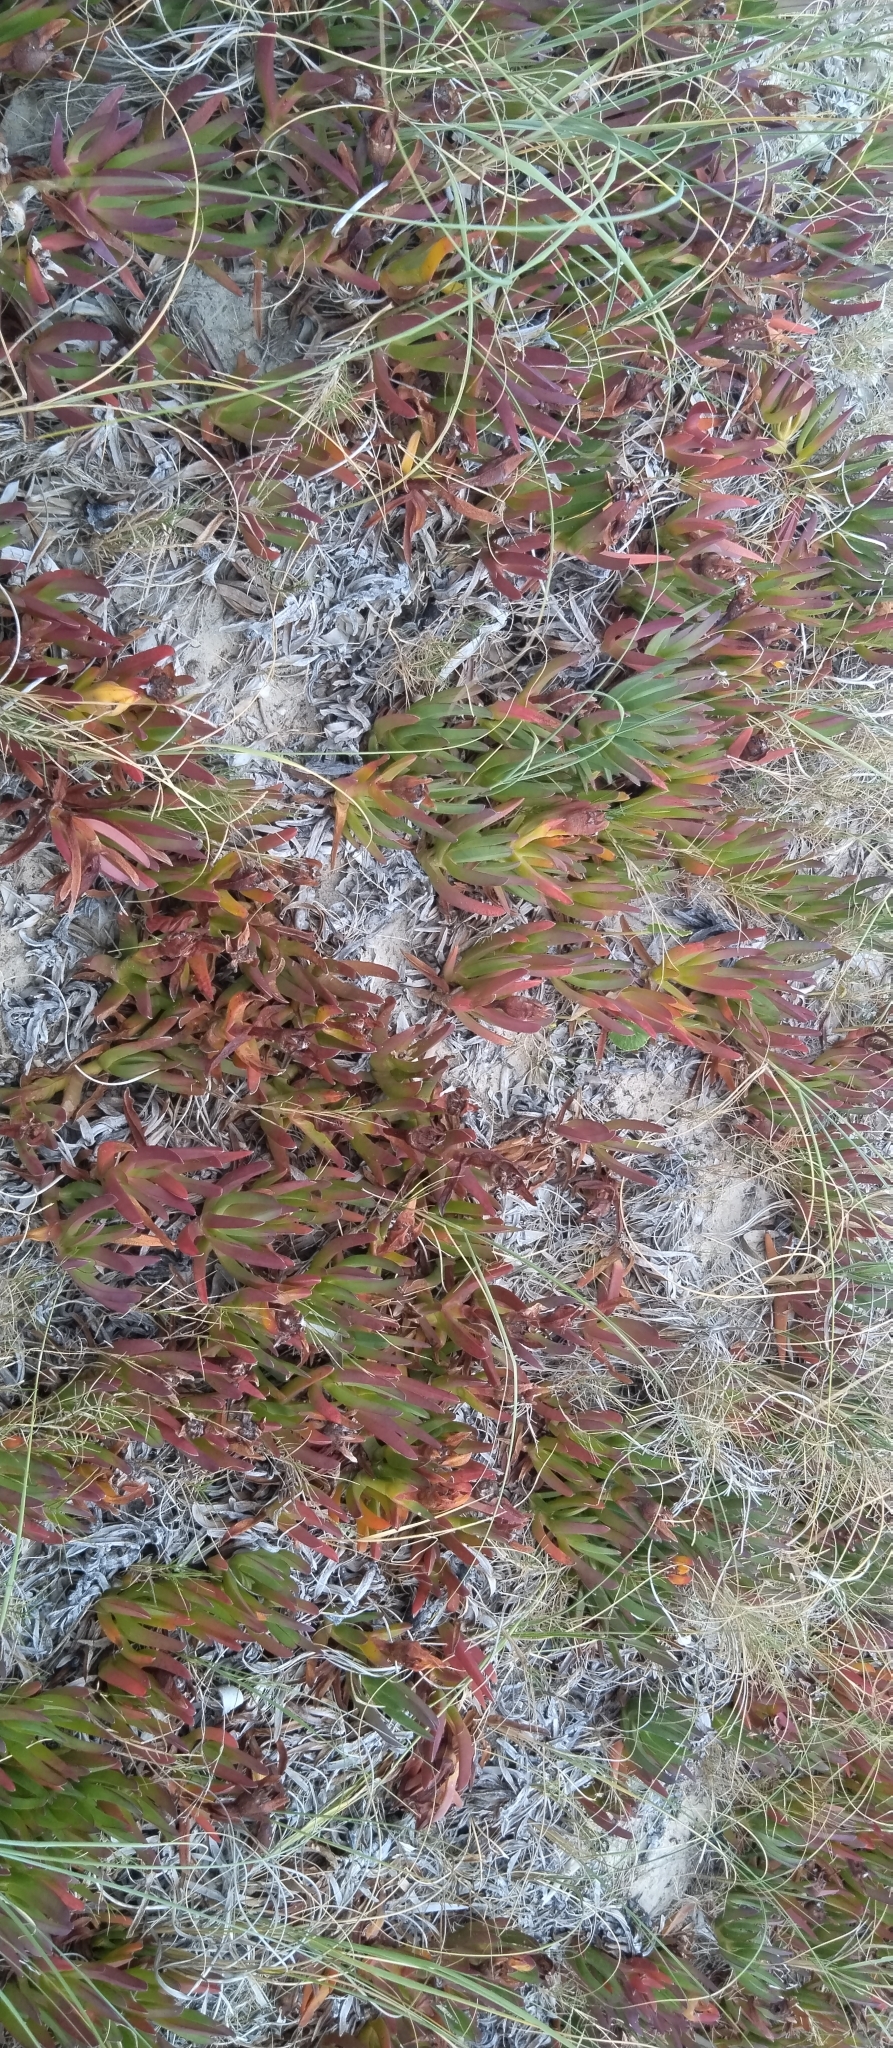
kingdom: Plantae
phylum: Tracheophyta
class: Magnoliopsida
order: Caryophyllales
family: Aizoaceae
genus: Carpobrotus
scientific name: Carpobrotus edulis
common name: Hottentot-fig
